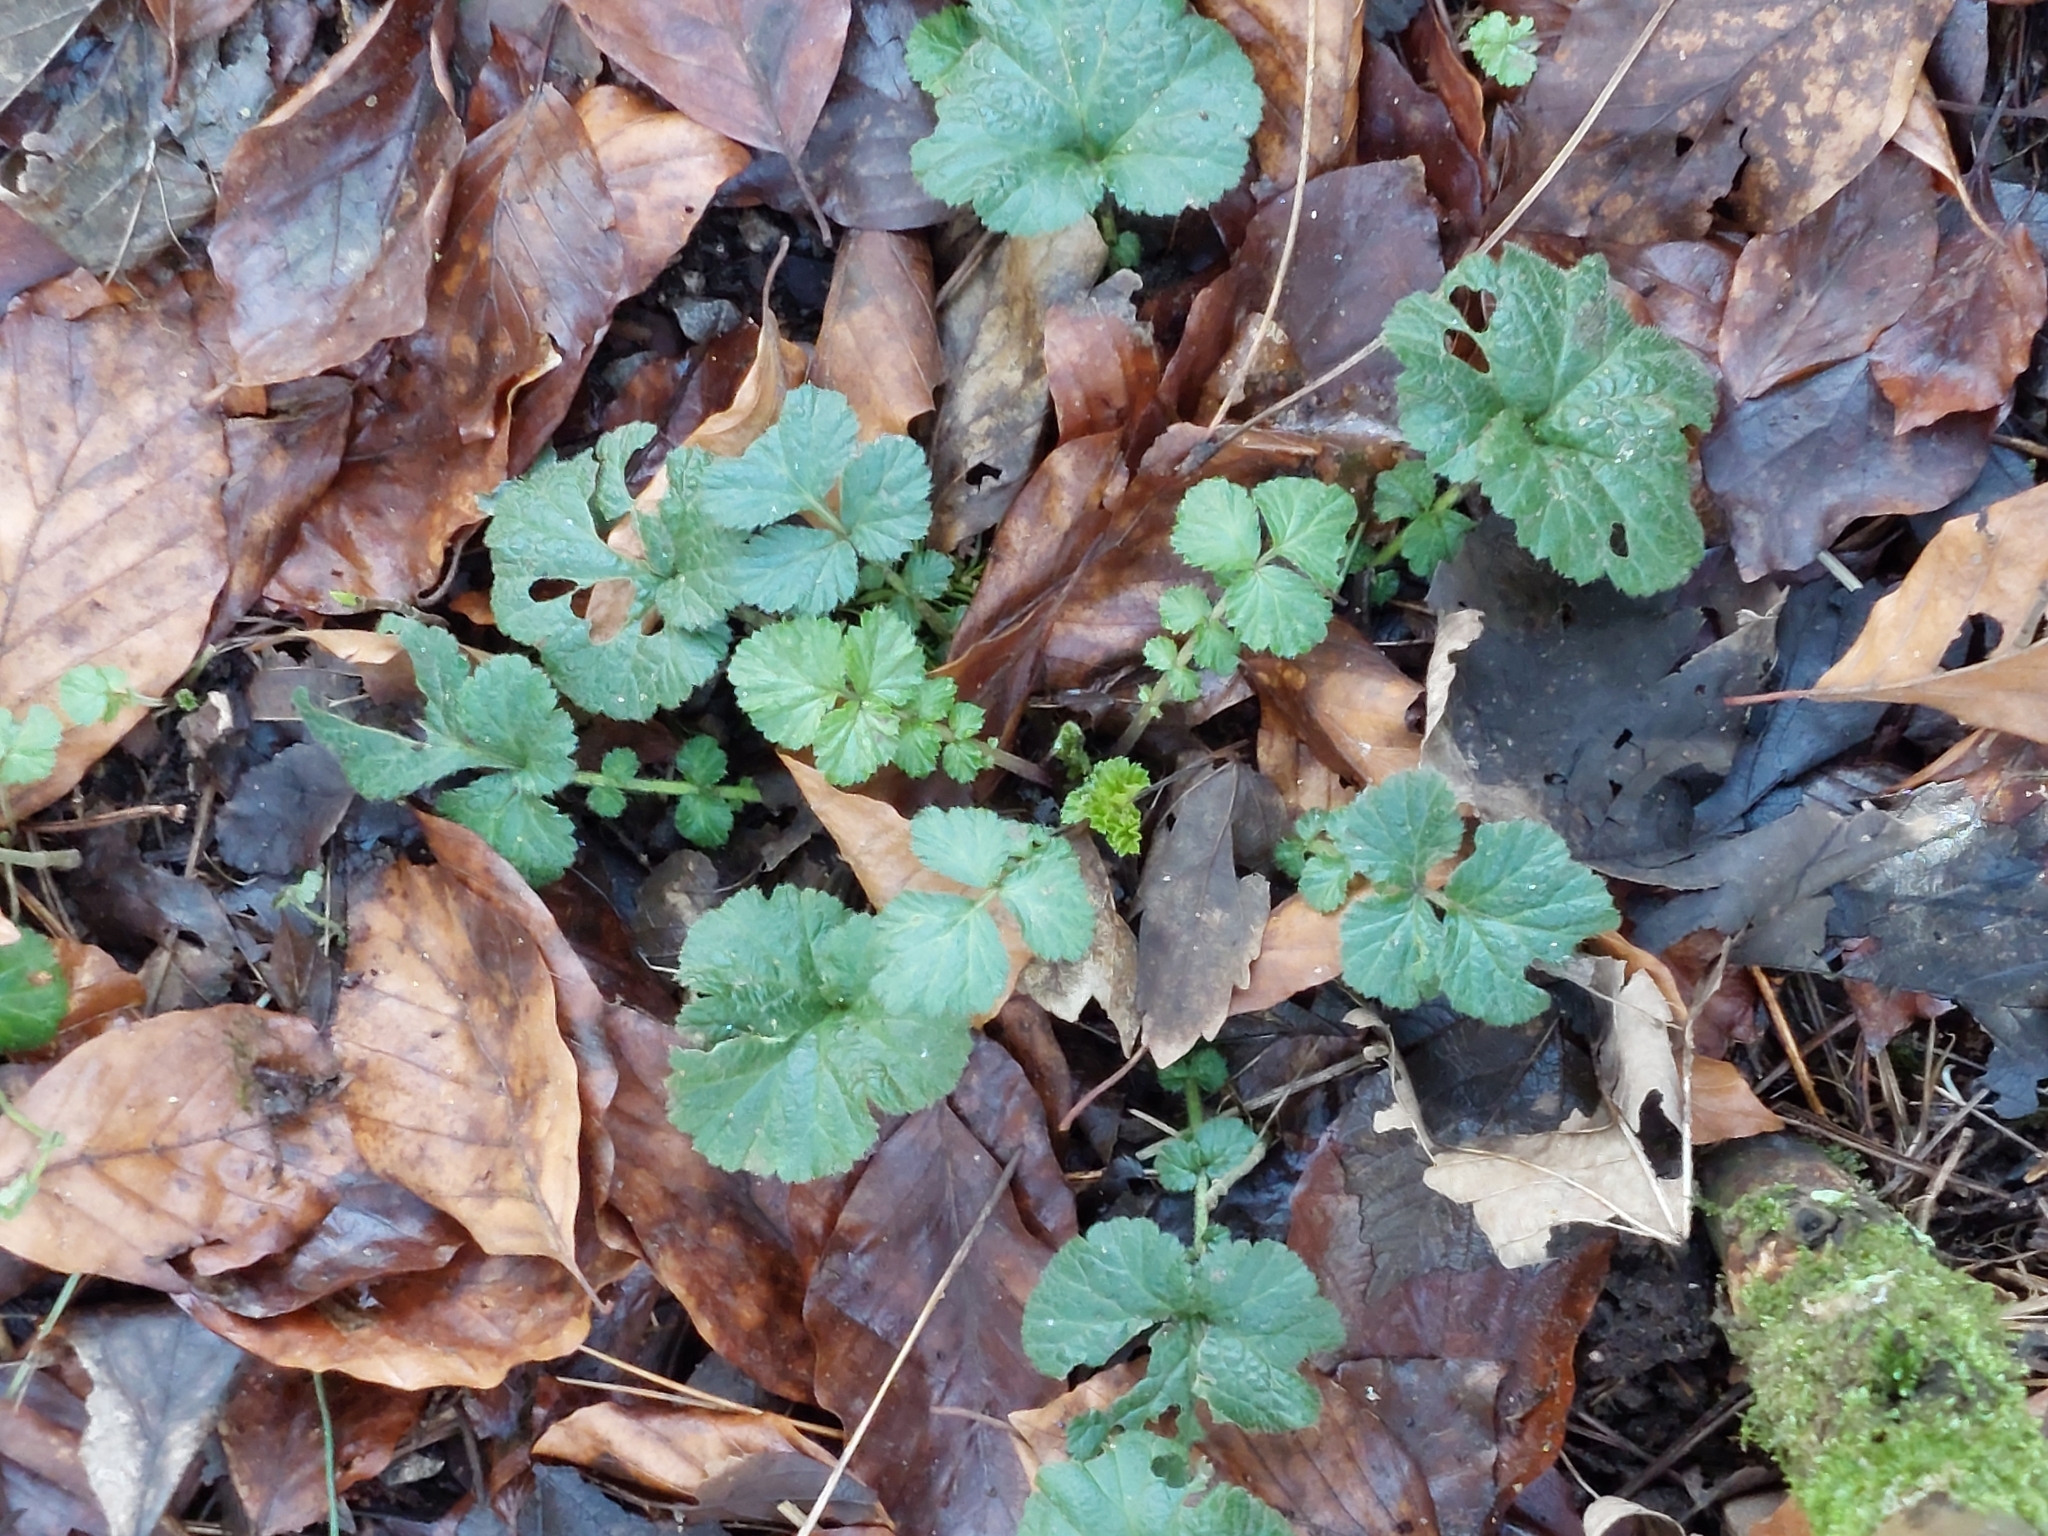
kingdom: Plantae
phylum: Tracheophyta
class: Magnoliopsida
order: Rosales
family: Rosaceae
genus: Geum
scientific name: Geum urbanum
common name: Wood avens
